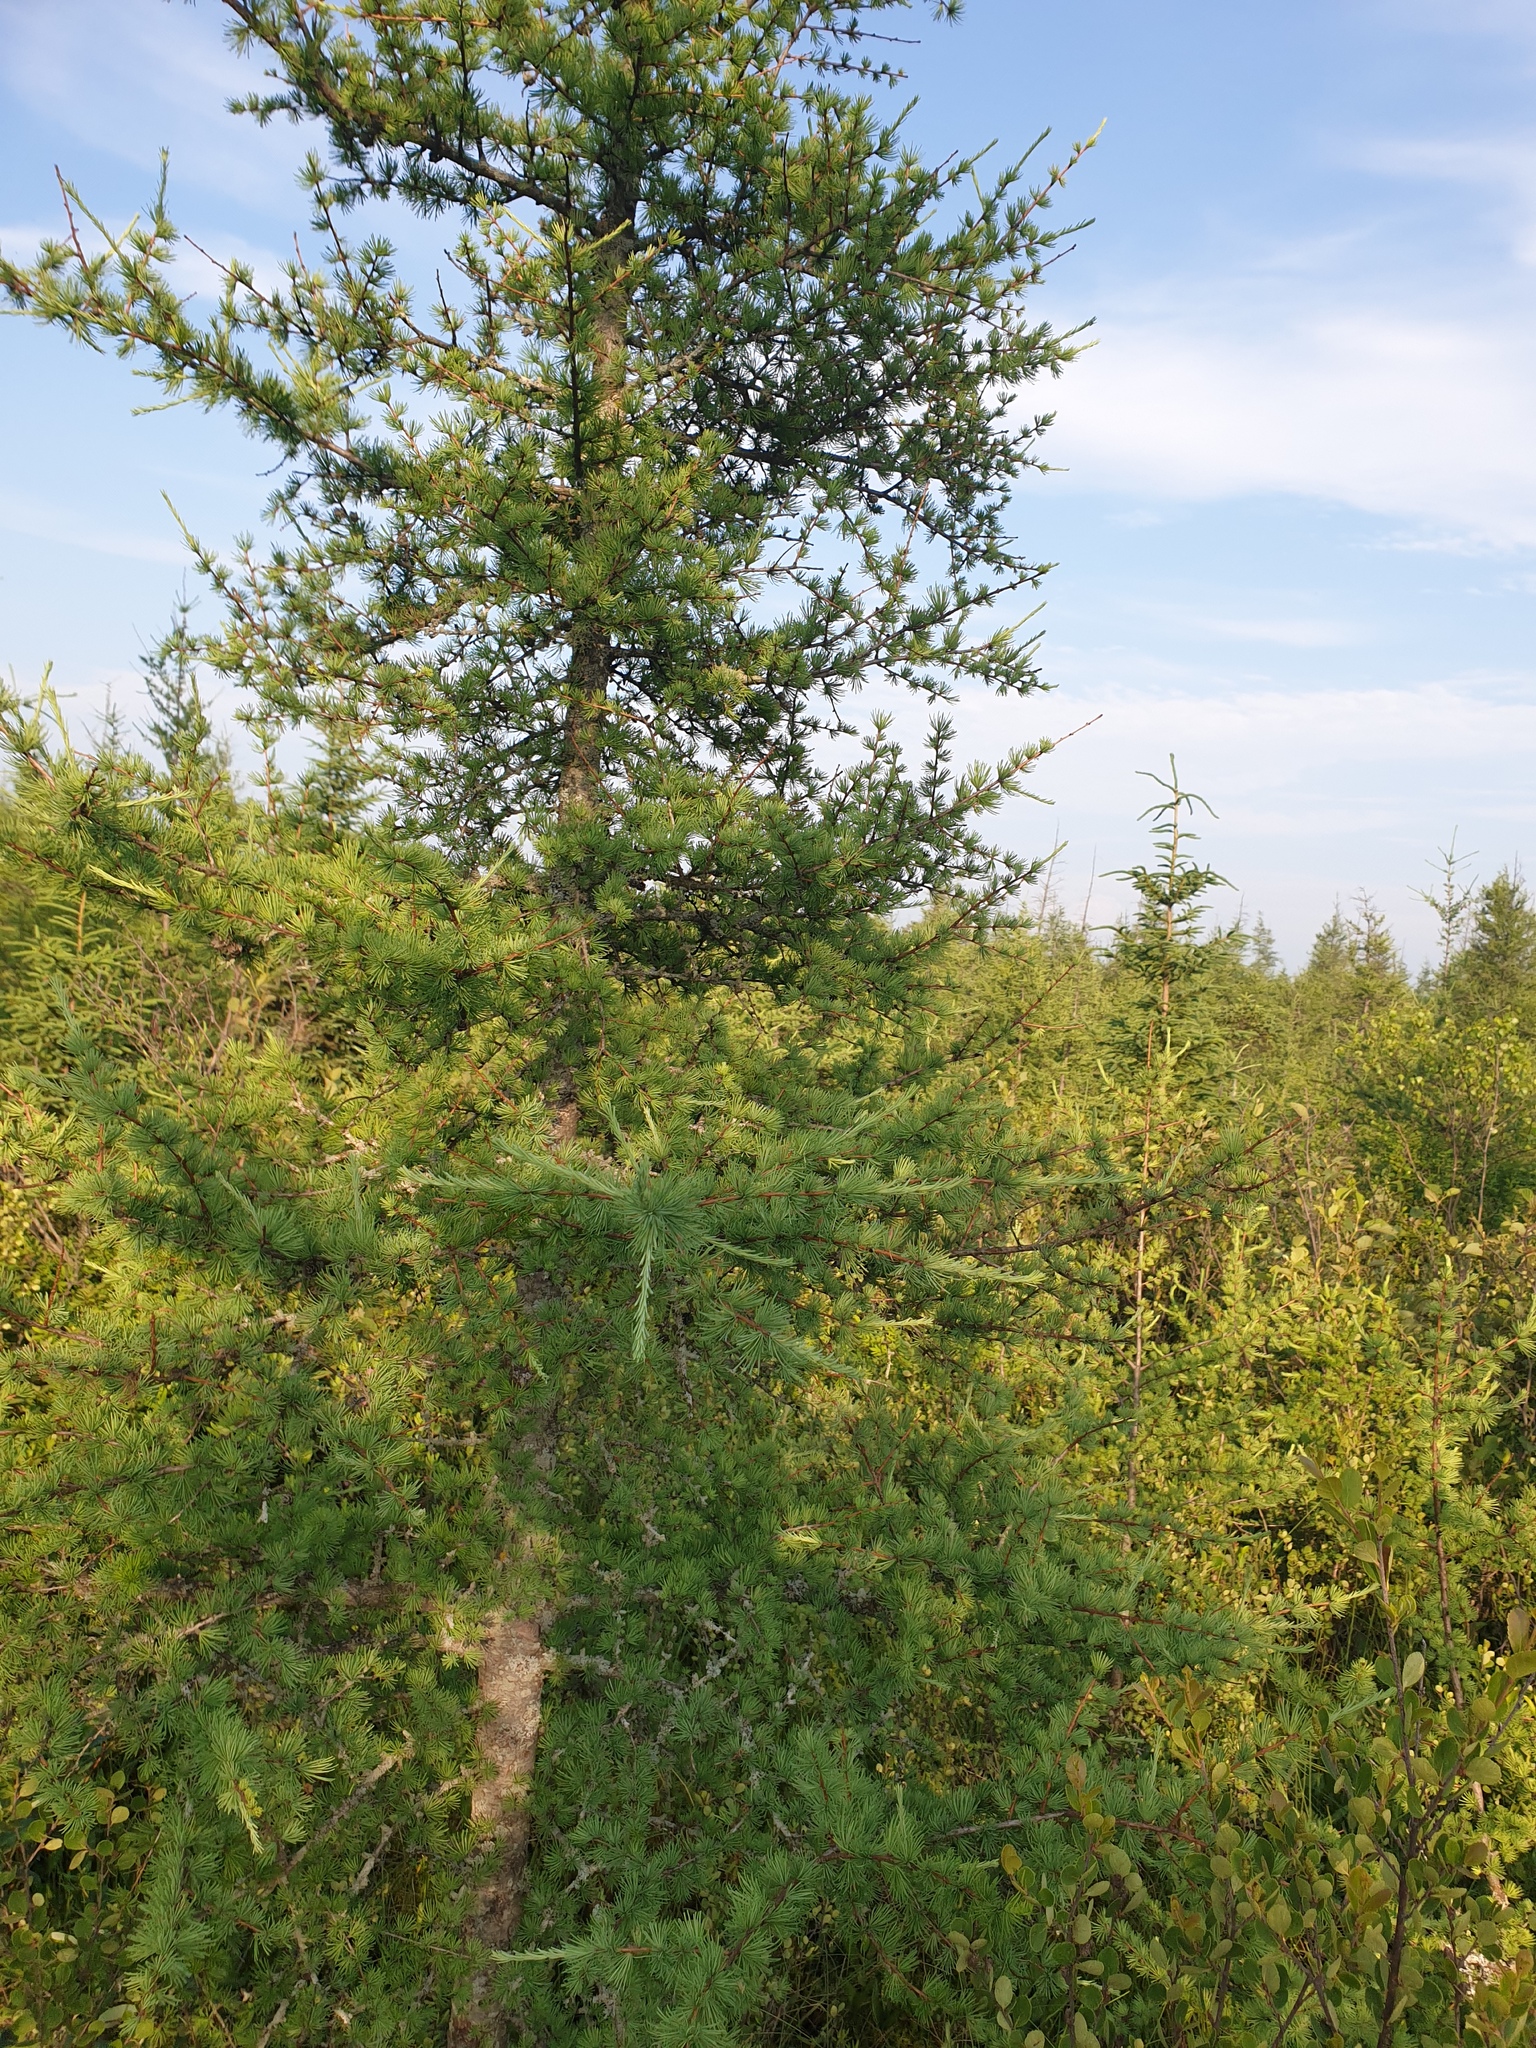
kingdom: Plantae
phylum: Tracheophyta
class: Pinopsida
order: Pinales
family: Pinaceae
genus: Larix
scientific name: Larix laricina
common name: American larch
